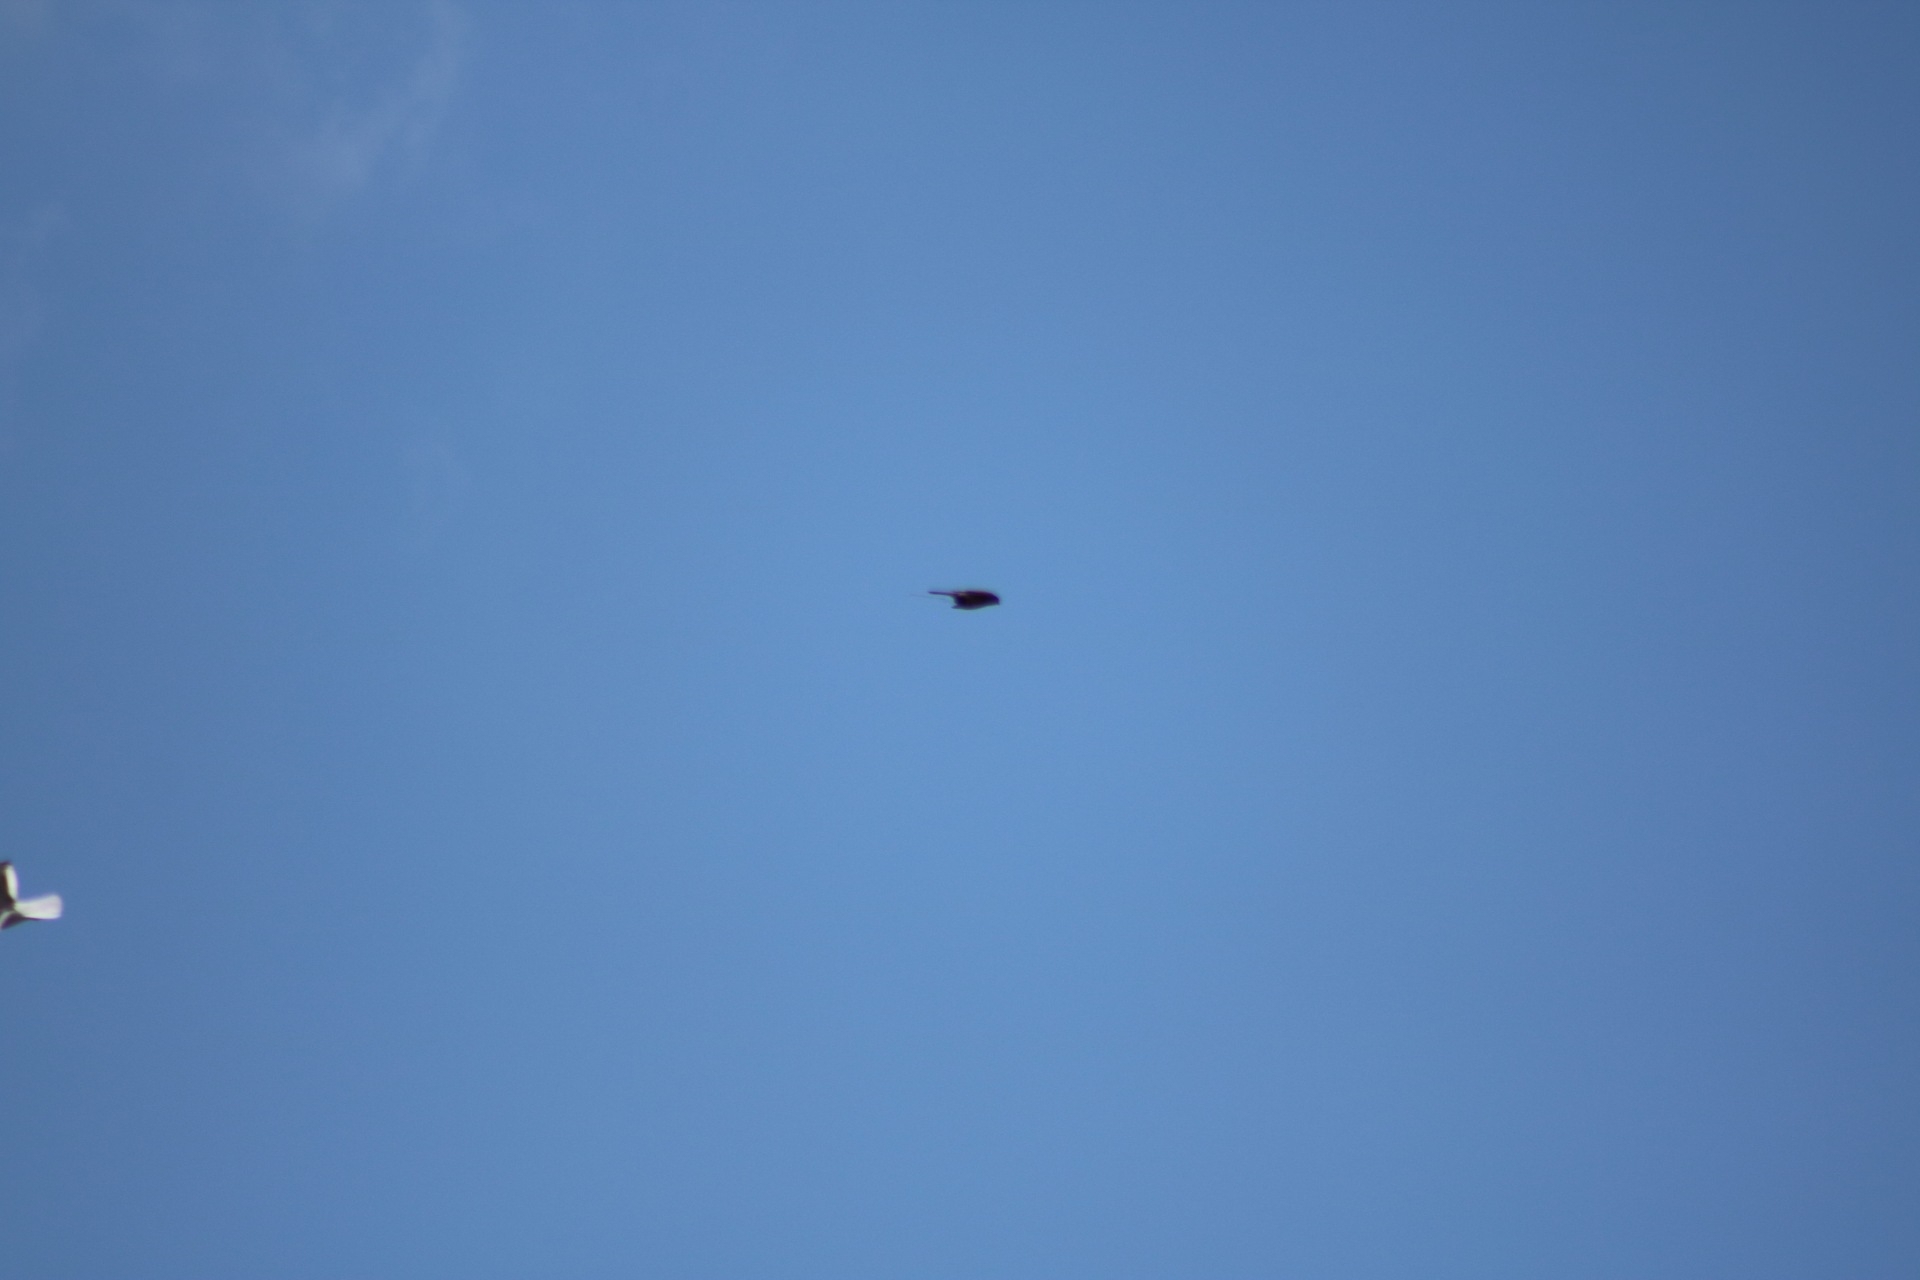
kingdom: Animalia
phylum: Chordata
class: Aves
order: Falconiformes
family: Falconidae
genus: Falco
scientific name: Falco tinnunculus
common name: Common kestrel
